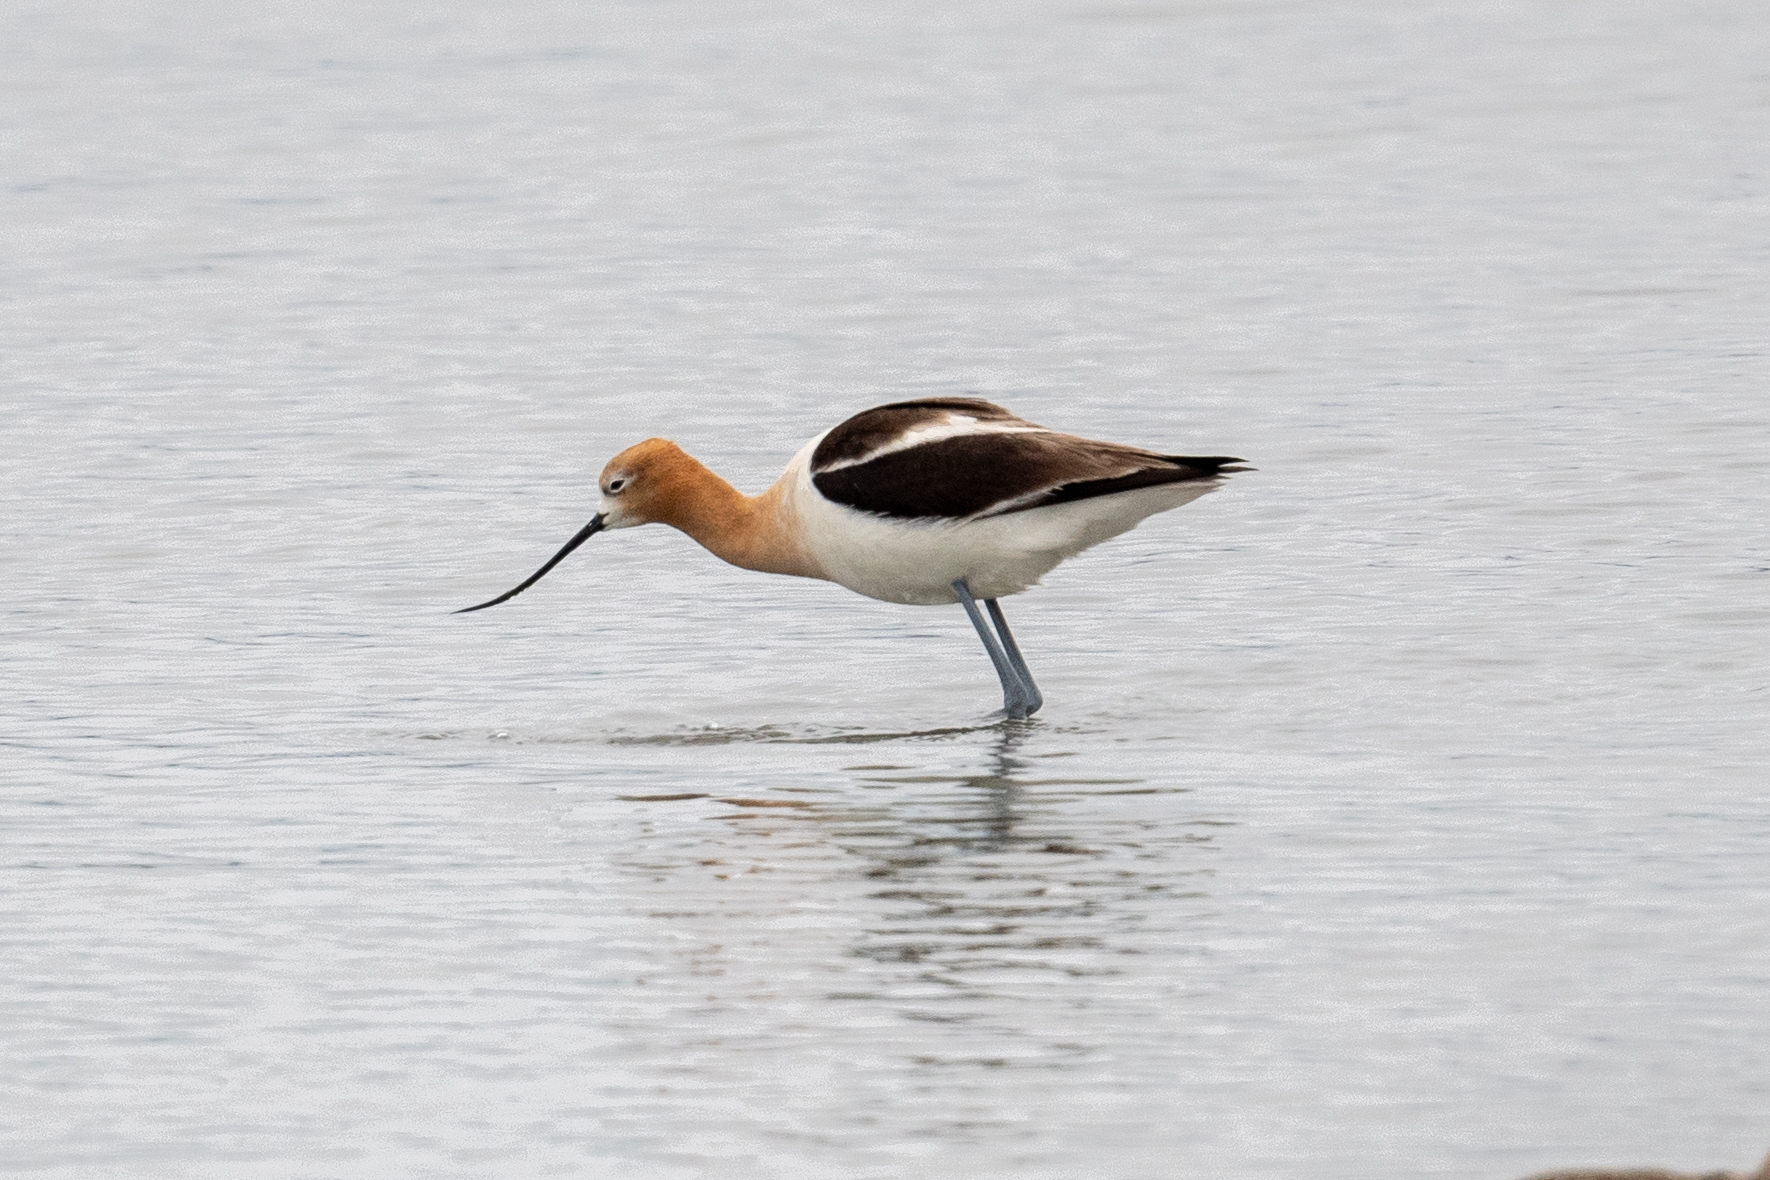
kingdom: Animalia
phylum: Chordata
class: Aves
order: Charadriiformes
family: Recurvirostridae
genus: Recurvirostra
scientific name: Recurvirostra americana
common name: American avocet
